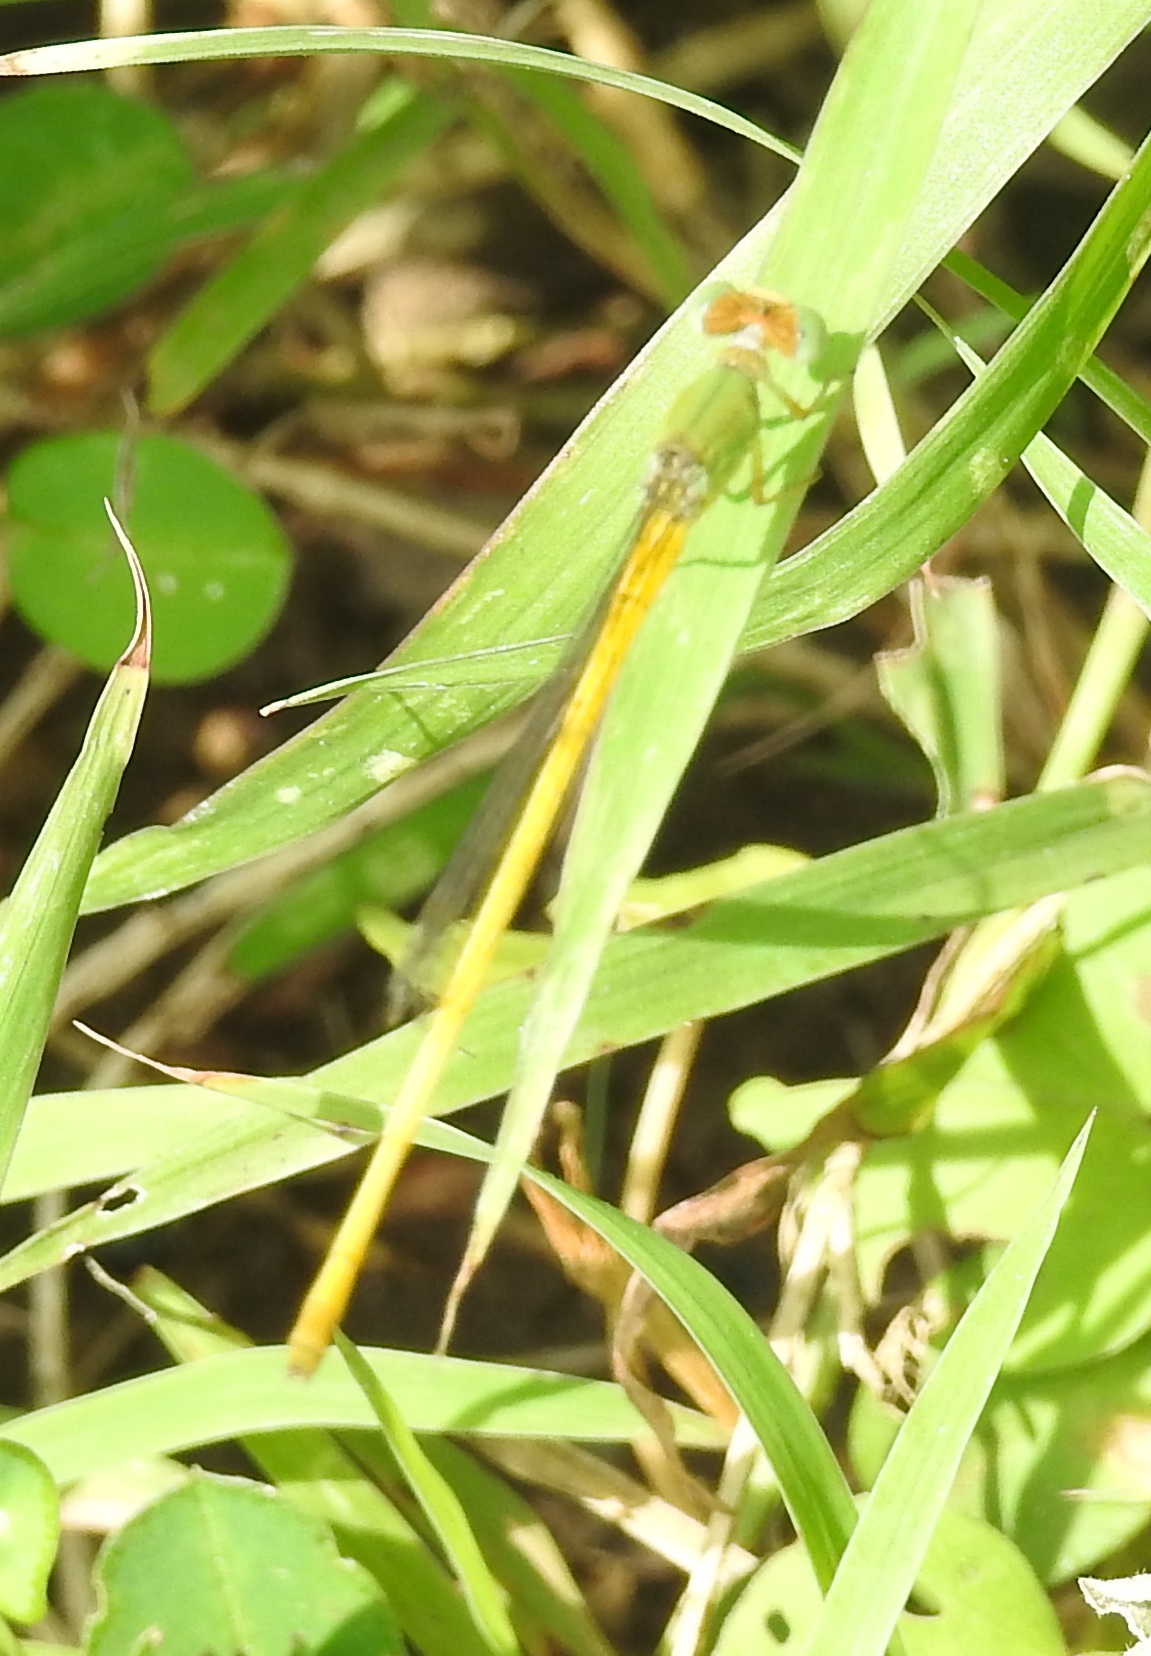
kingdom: Animalia
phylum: Arthropoda
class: Insecta
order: Odonata
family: Coenagrionidae
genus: Ceriagrion
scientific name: Ceriagrion coromandelianum
